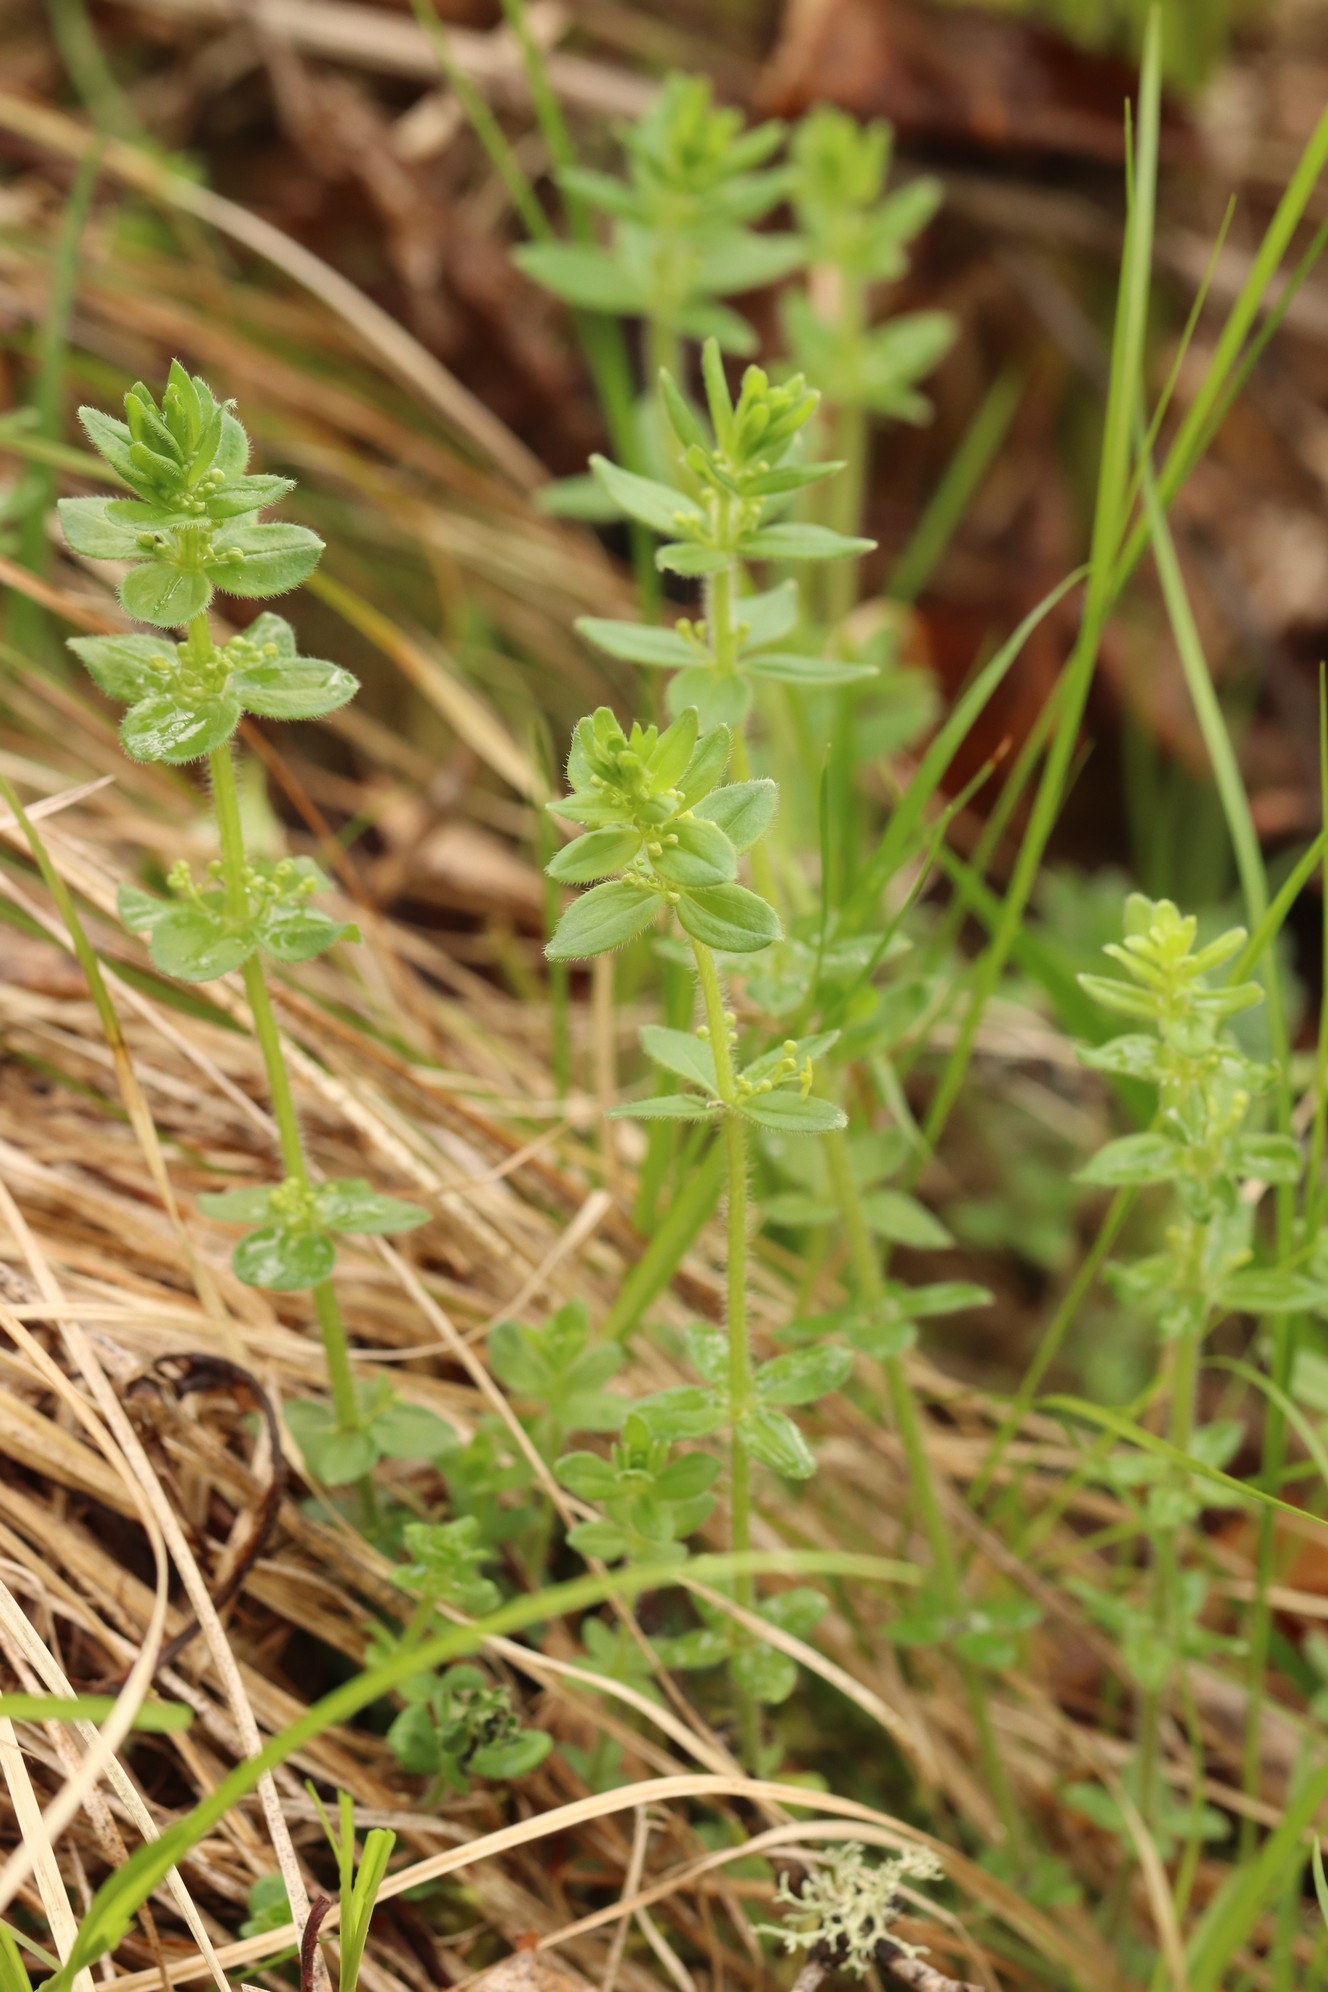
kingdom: Plantae
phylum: Tracheophyta
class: Magnoliopsida
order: Gentianales
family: Rubiaceae
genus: Cruciata
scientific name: Cruciata glabra
